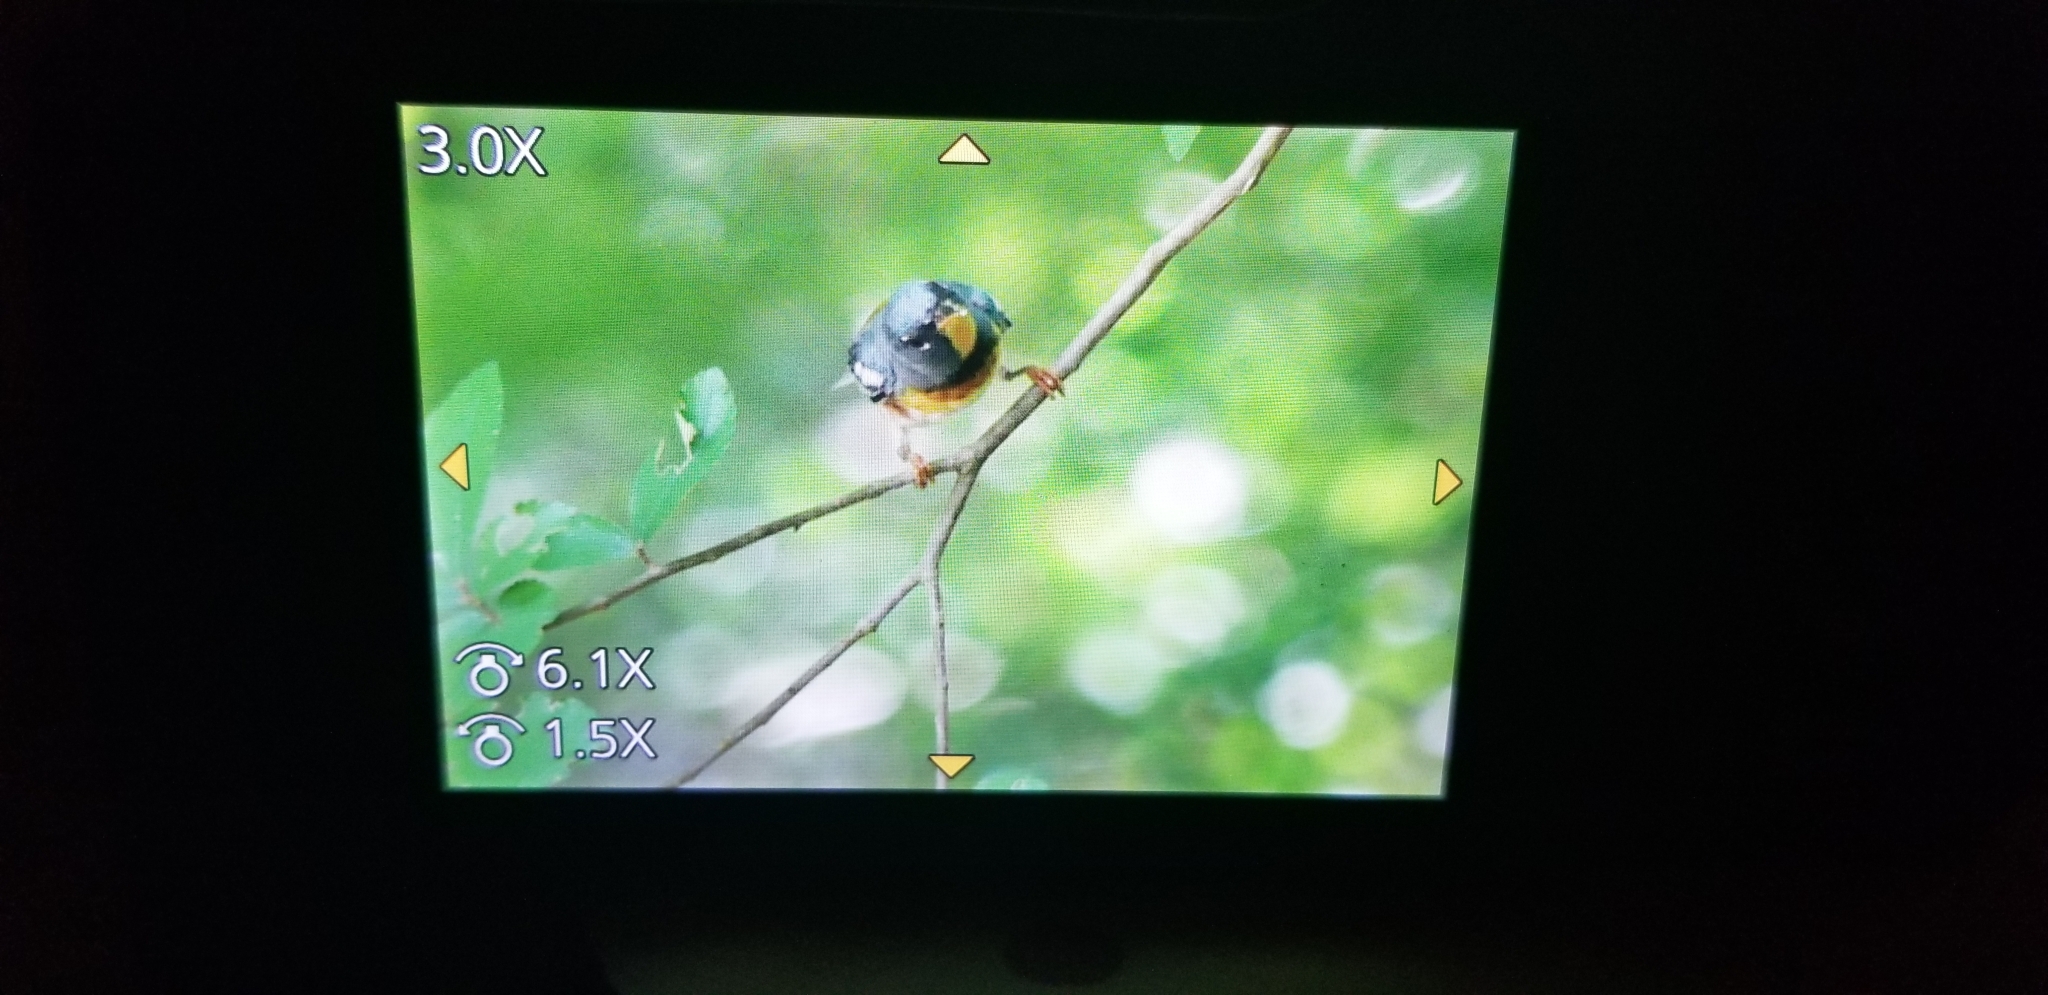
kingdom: Animalia
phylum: Chordata
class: Aves
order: Passeriformes
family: Parulidae
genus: Setophaga
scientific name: Setophaga americana
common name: Northern parula
